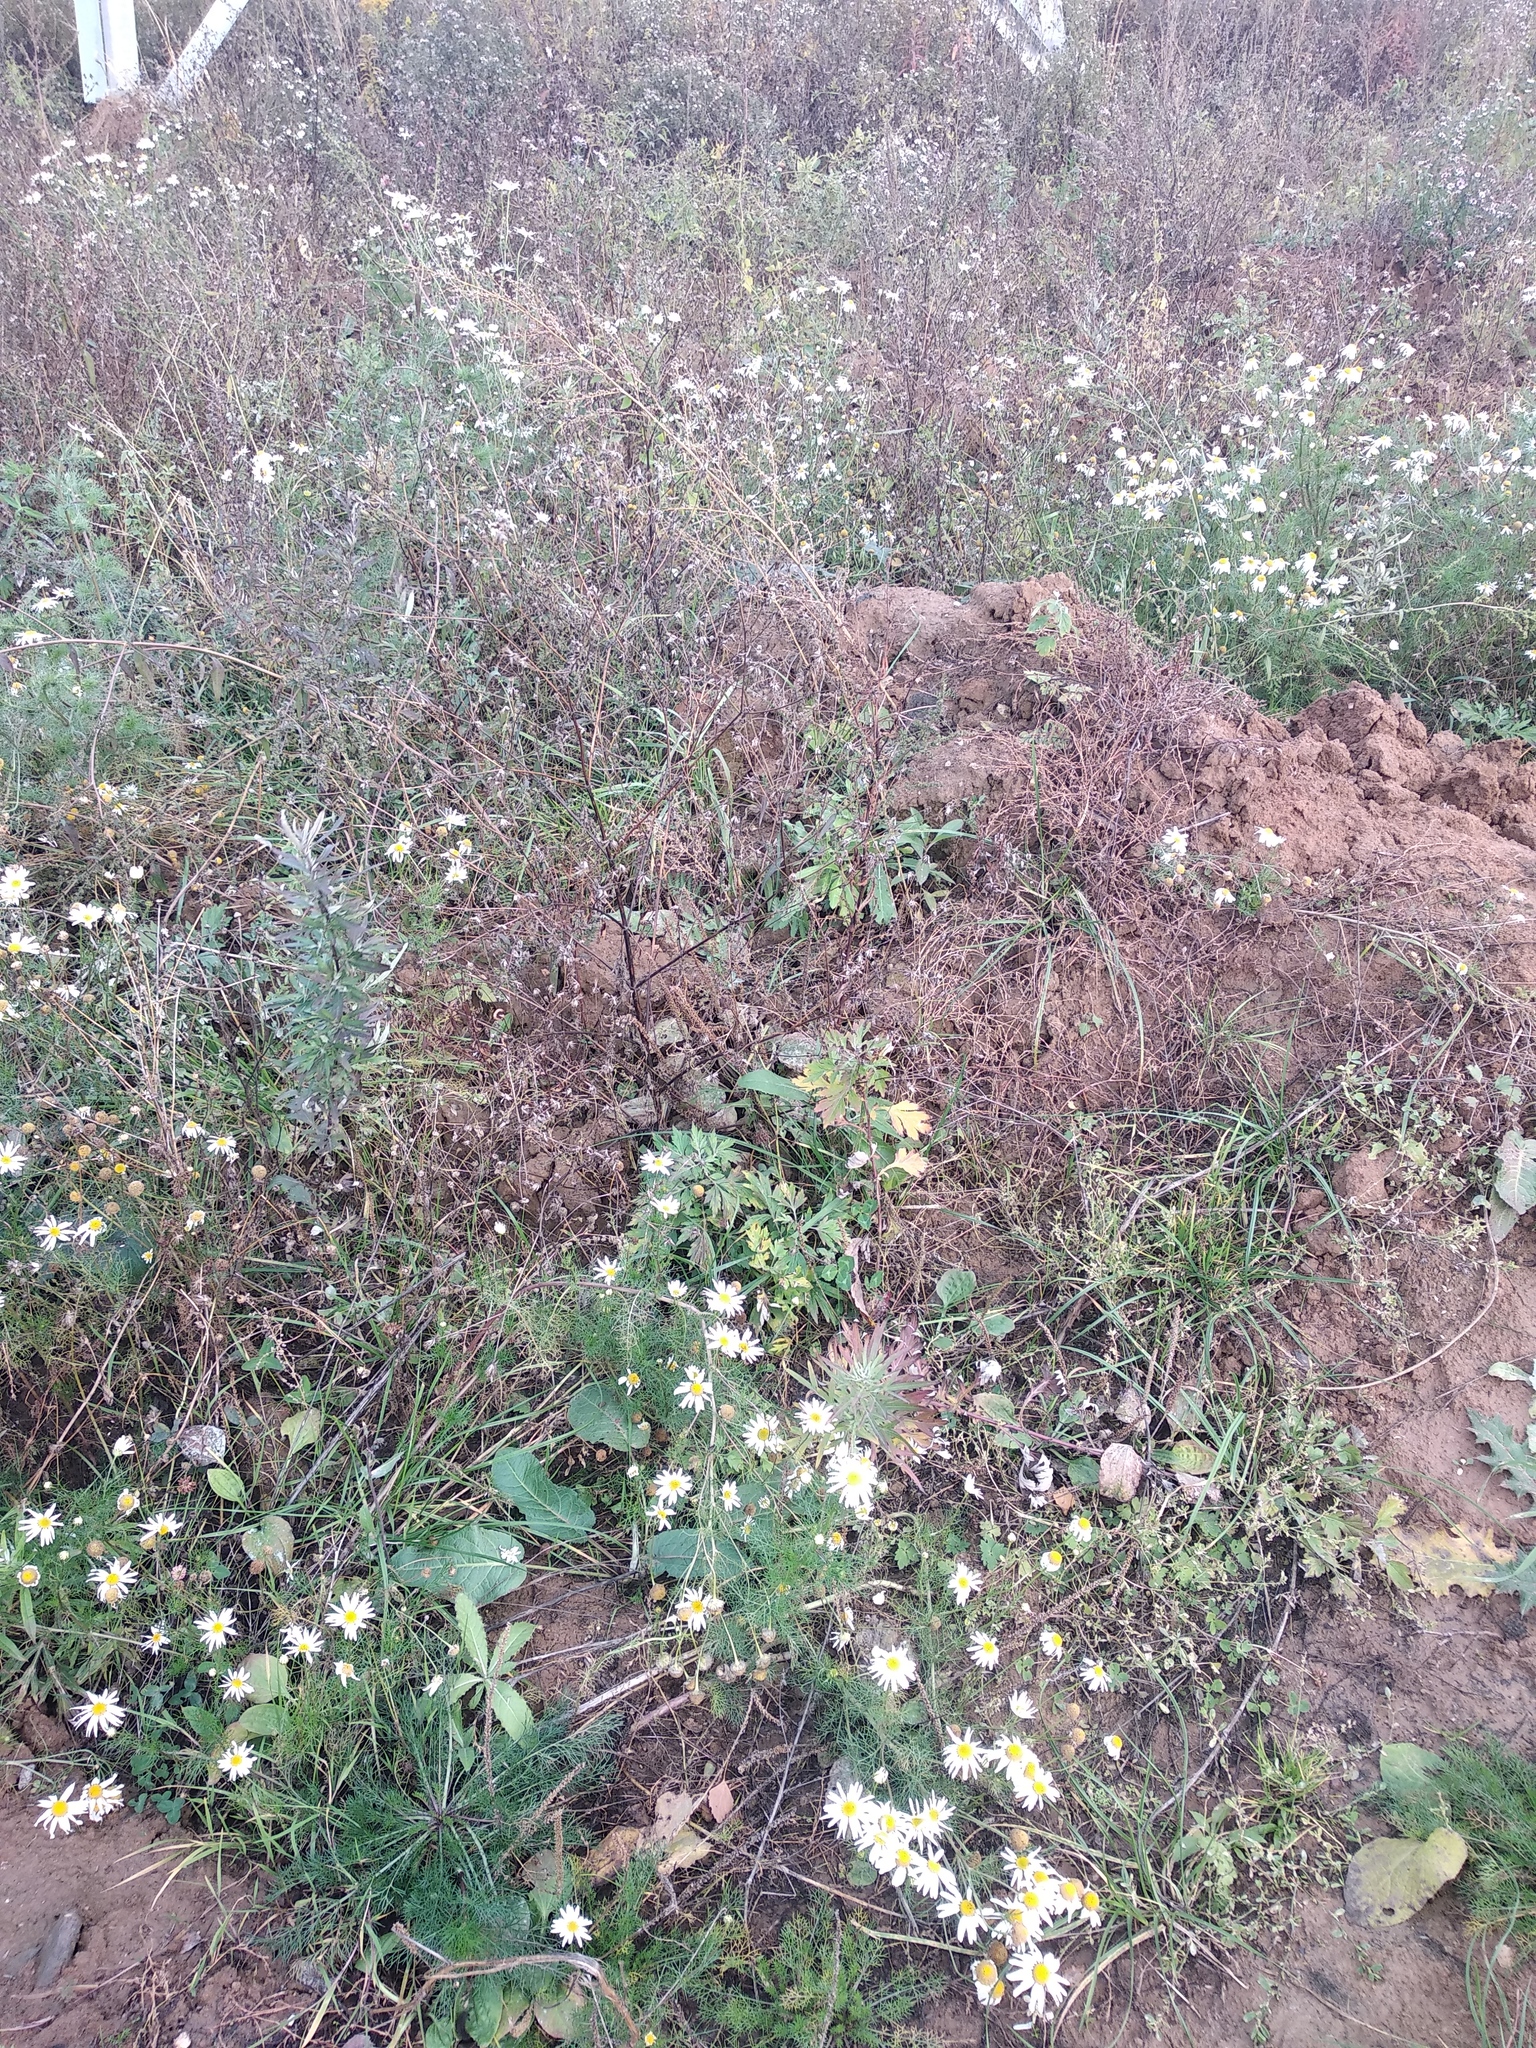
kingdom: Plantae
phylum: Tracheophyta
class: Magnoliopsida
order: Asterales
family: Asteraceae
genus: Tripleurospermum
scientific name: Tripleurospermum inodorum
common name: Scentless mayweed
